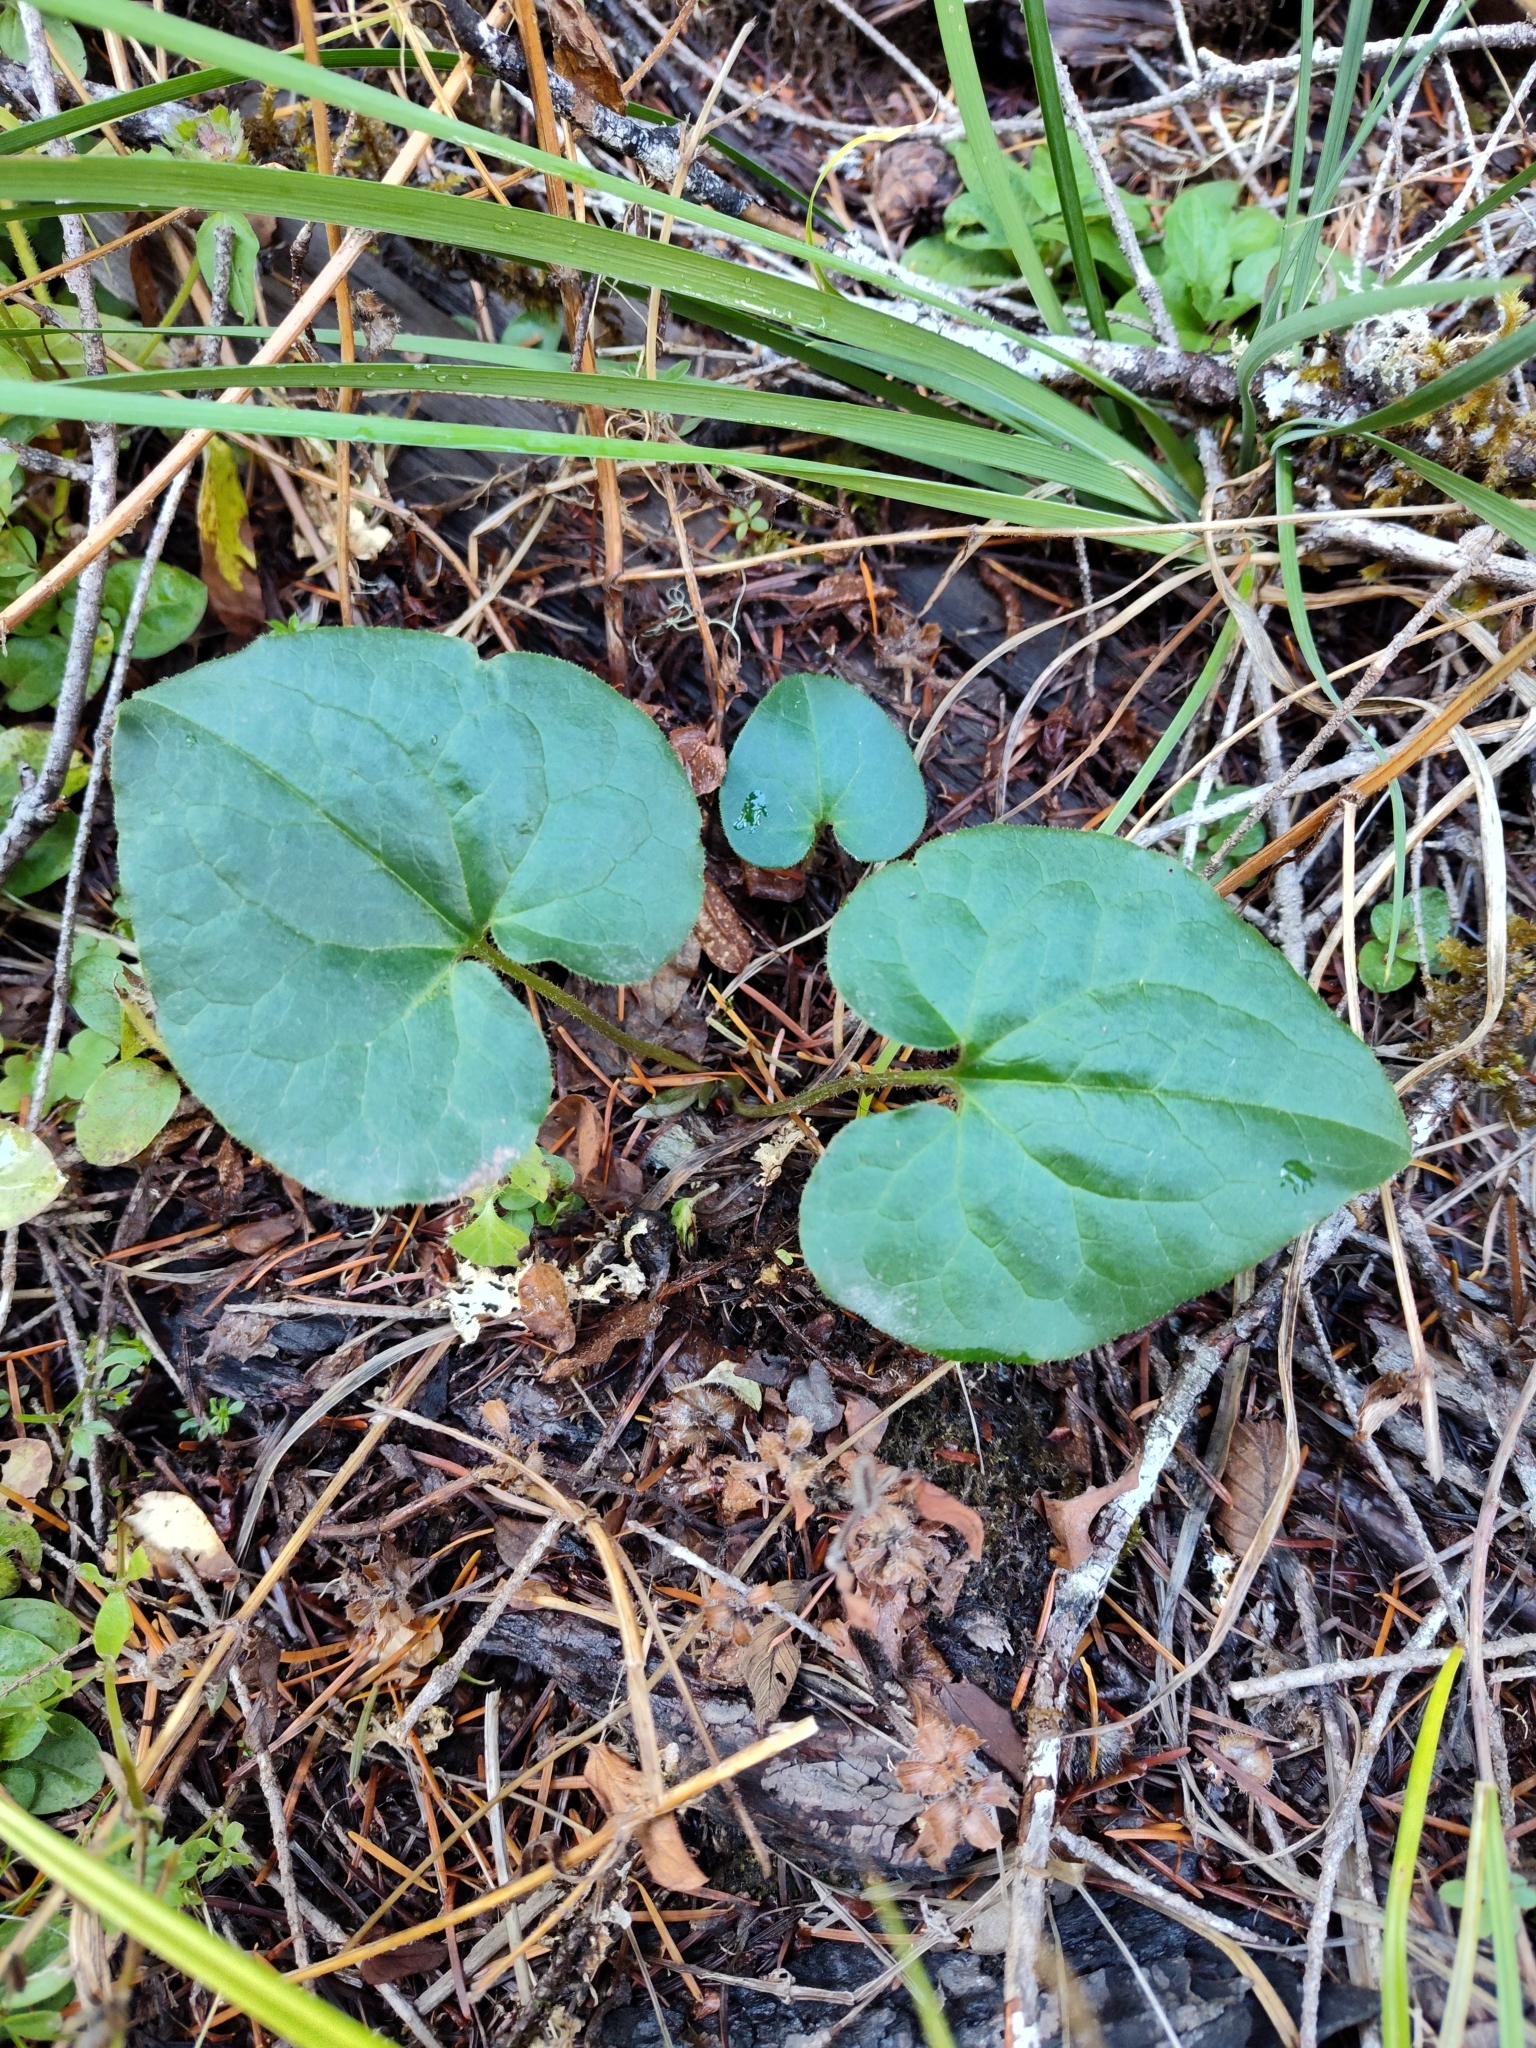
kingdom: Plantae
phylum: Tracheophyta
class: Magnoliopsida
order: Piperales
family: Aristolochiaceae
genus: Asarum
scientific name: Asarum caudatum
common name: Wild ginger
